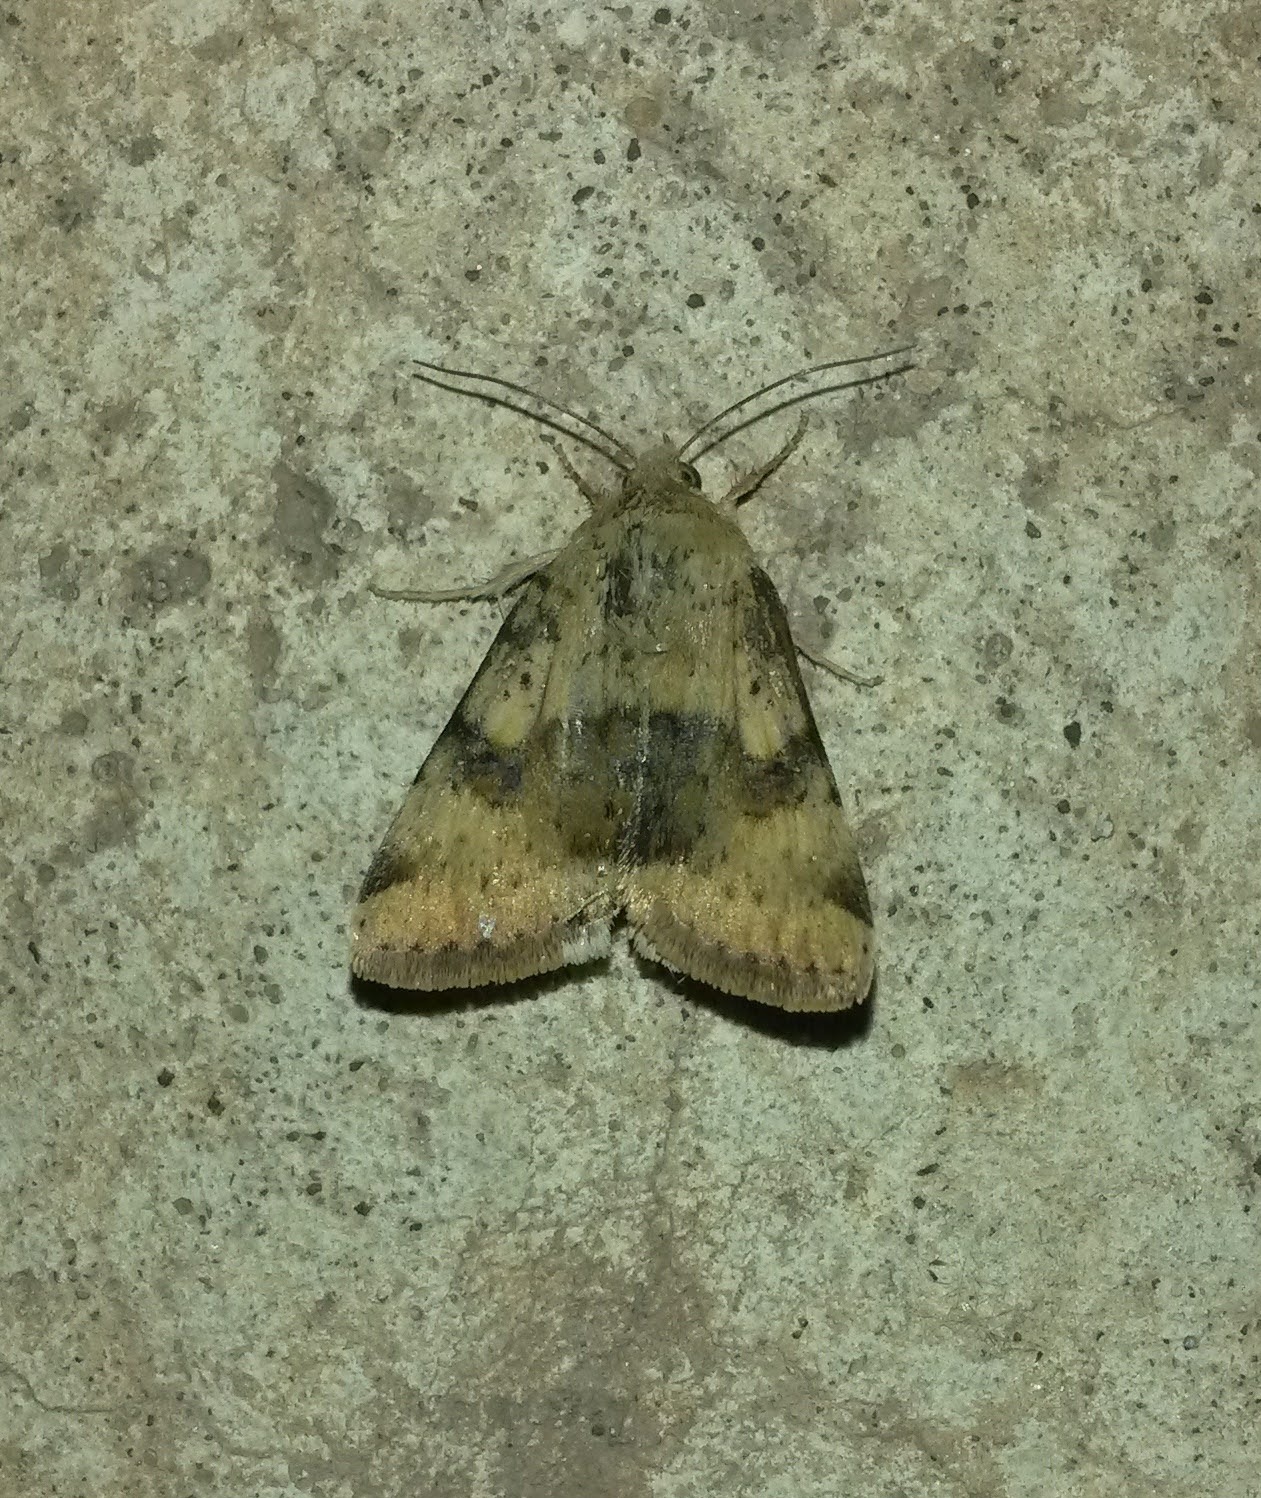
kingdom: Animalia
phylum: Arthropoda
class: Insecta
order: Lepidoptera
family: Noctuidae
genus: Heliothis
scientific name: Heliothis viriplaca
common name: Marbled clover
